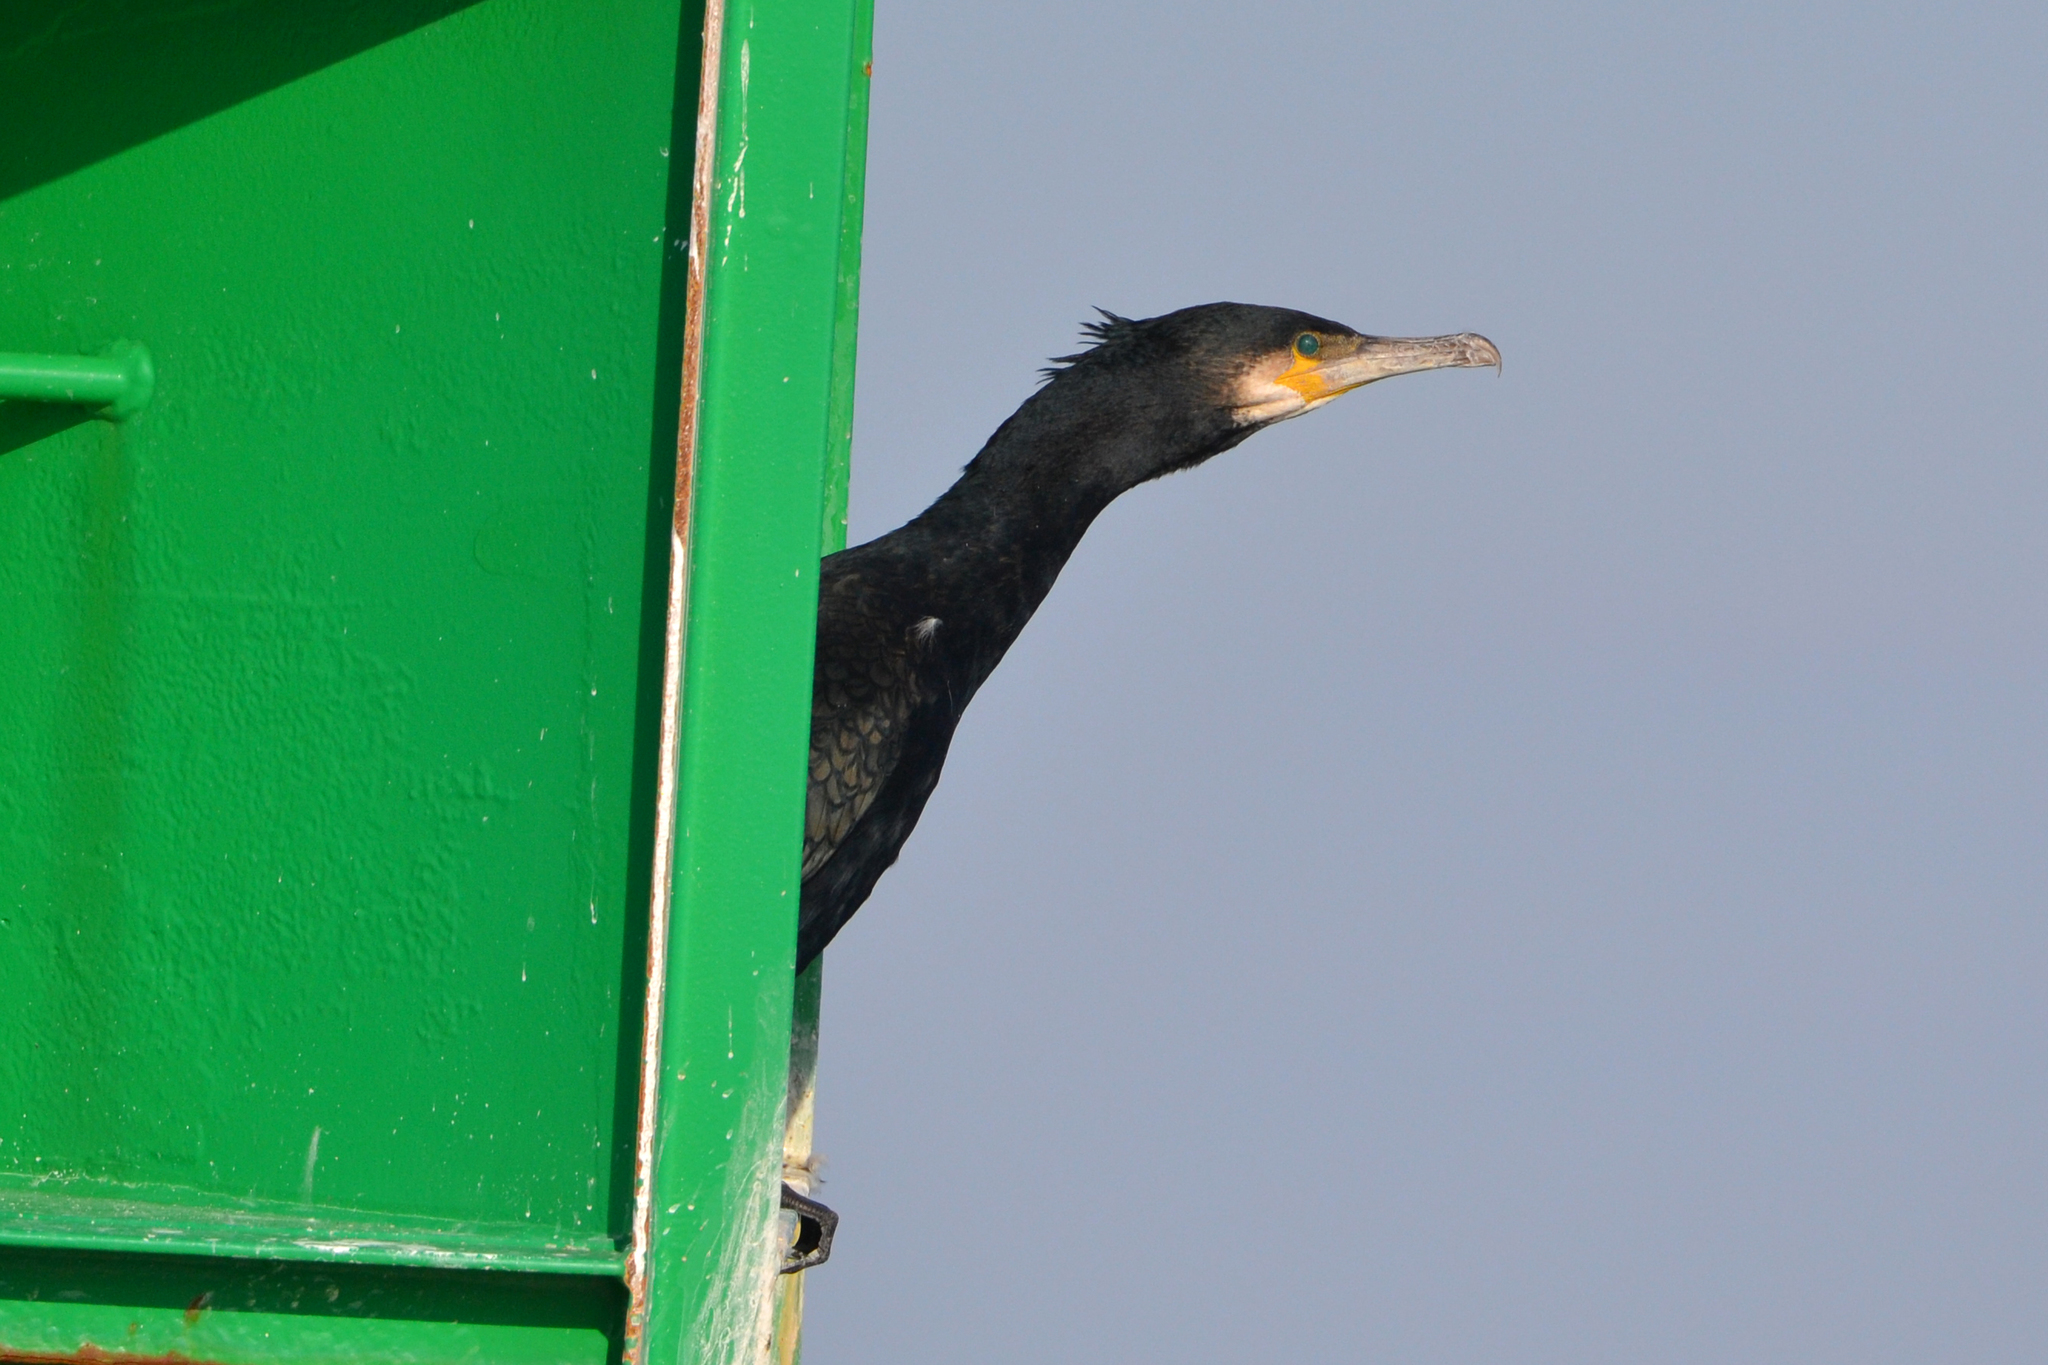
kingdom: Animalia
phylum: Chordata
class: Aves
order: Suliformes
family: Phalacrocoracidae
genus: Phalacrocorax
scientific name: Phalacrocorax carbo
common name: Great cormorant
